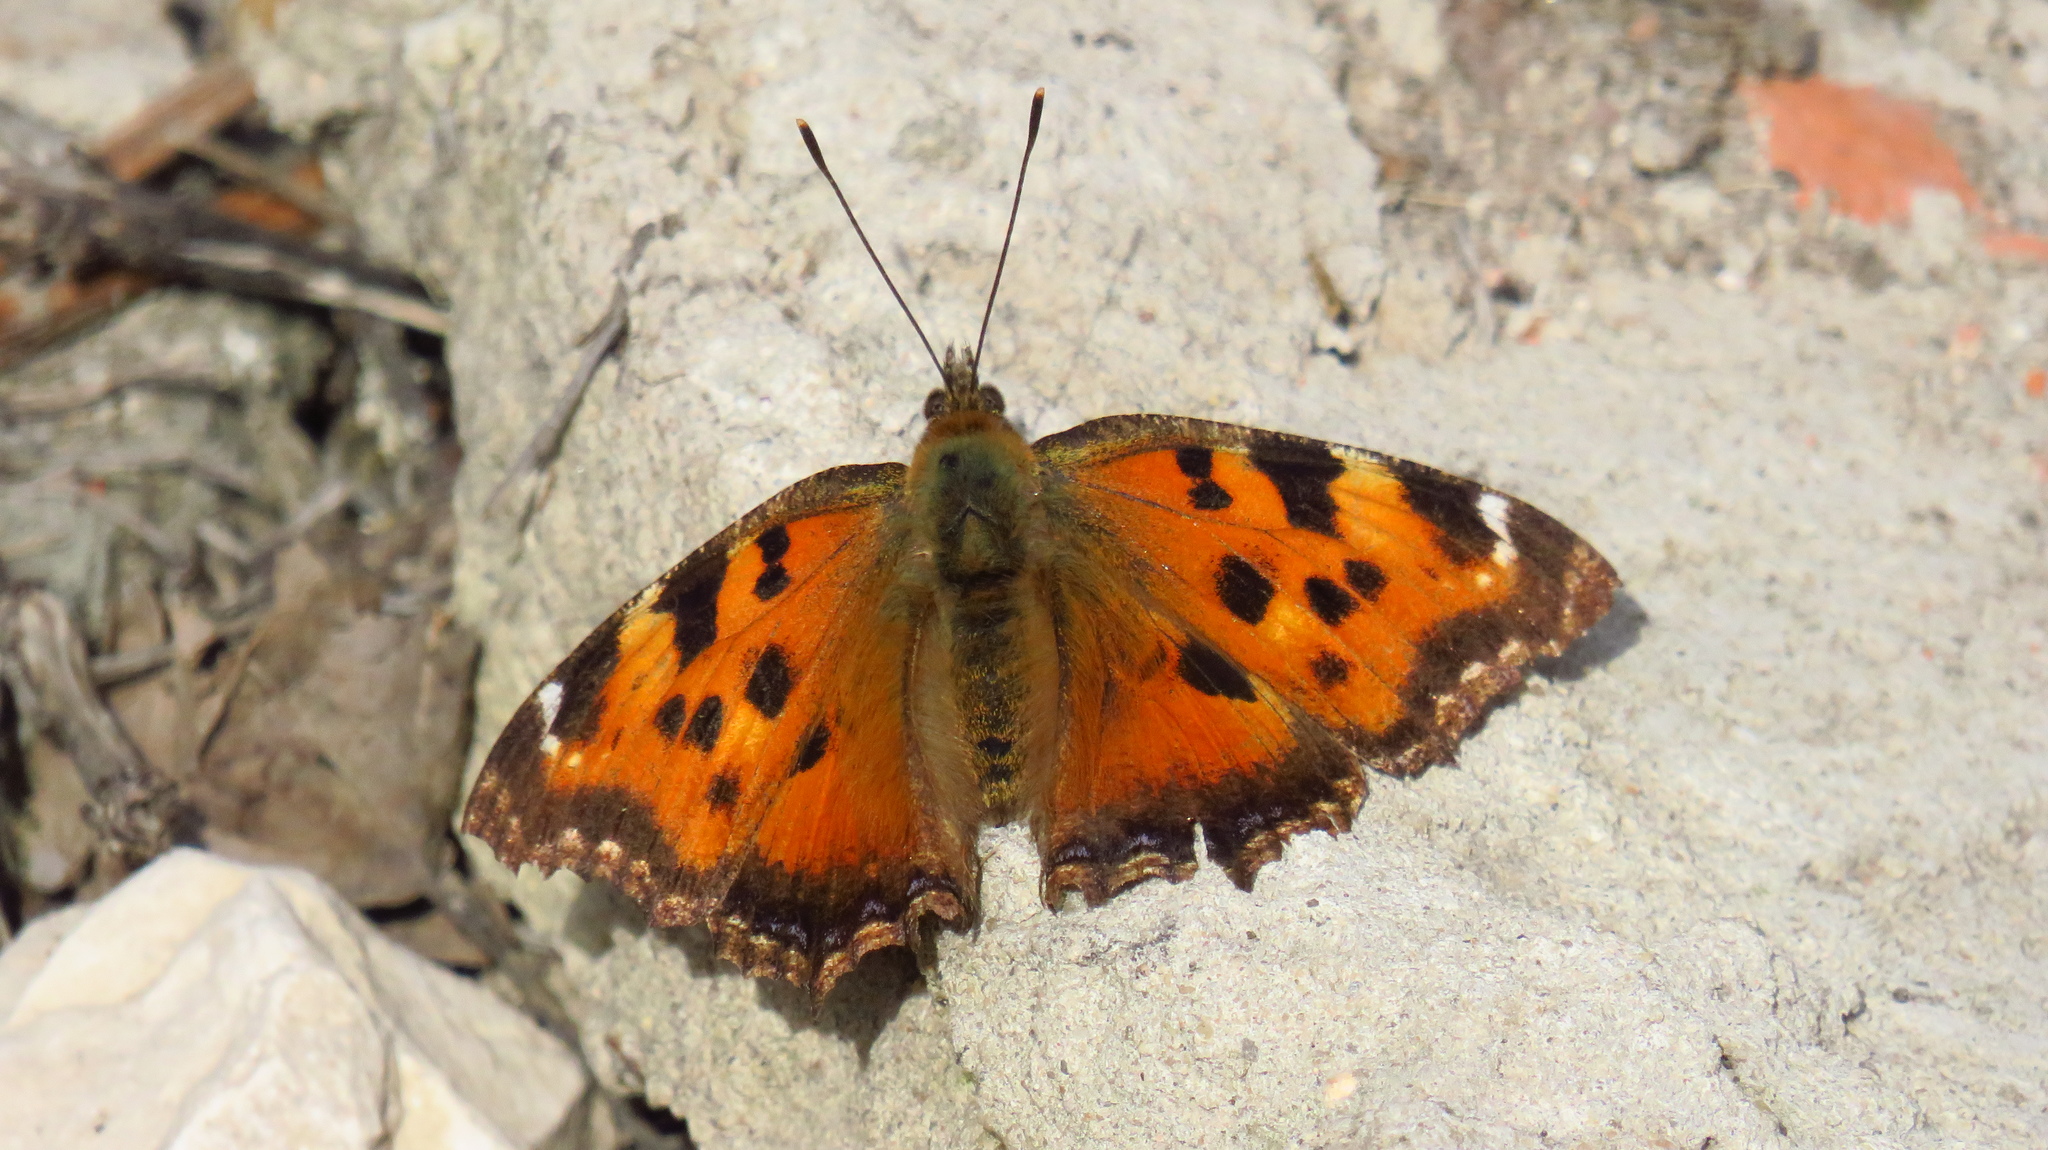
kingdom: Animalia
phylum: Arthropoda
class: Insecta
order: Lepidoptera
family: Nymphalidae
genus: Nymphalis
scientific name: Nymphalis xanthomelas
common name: Scarce tortoiseshell
